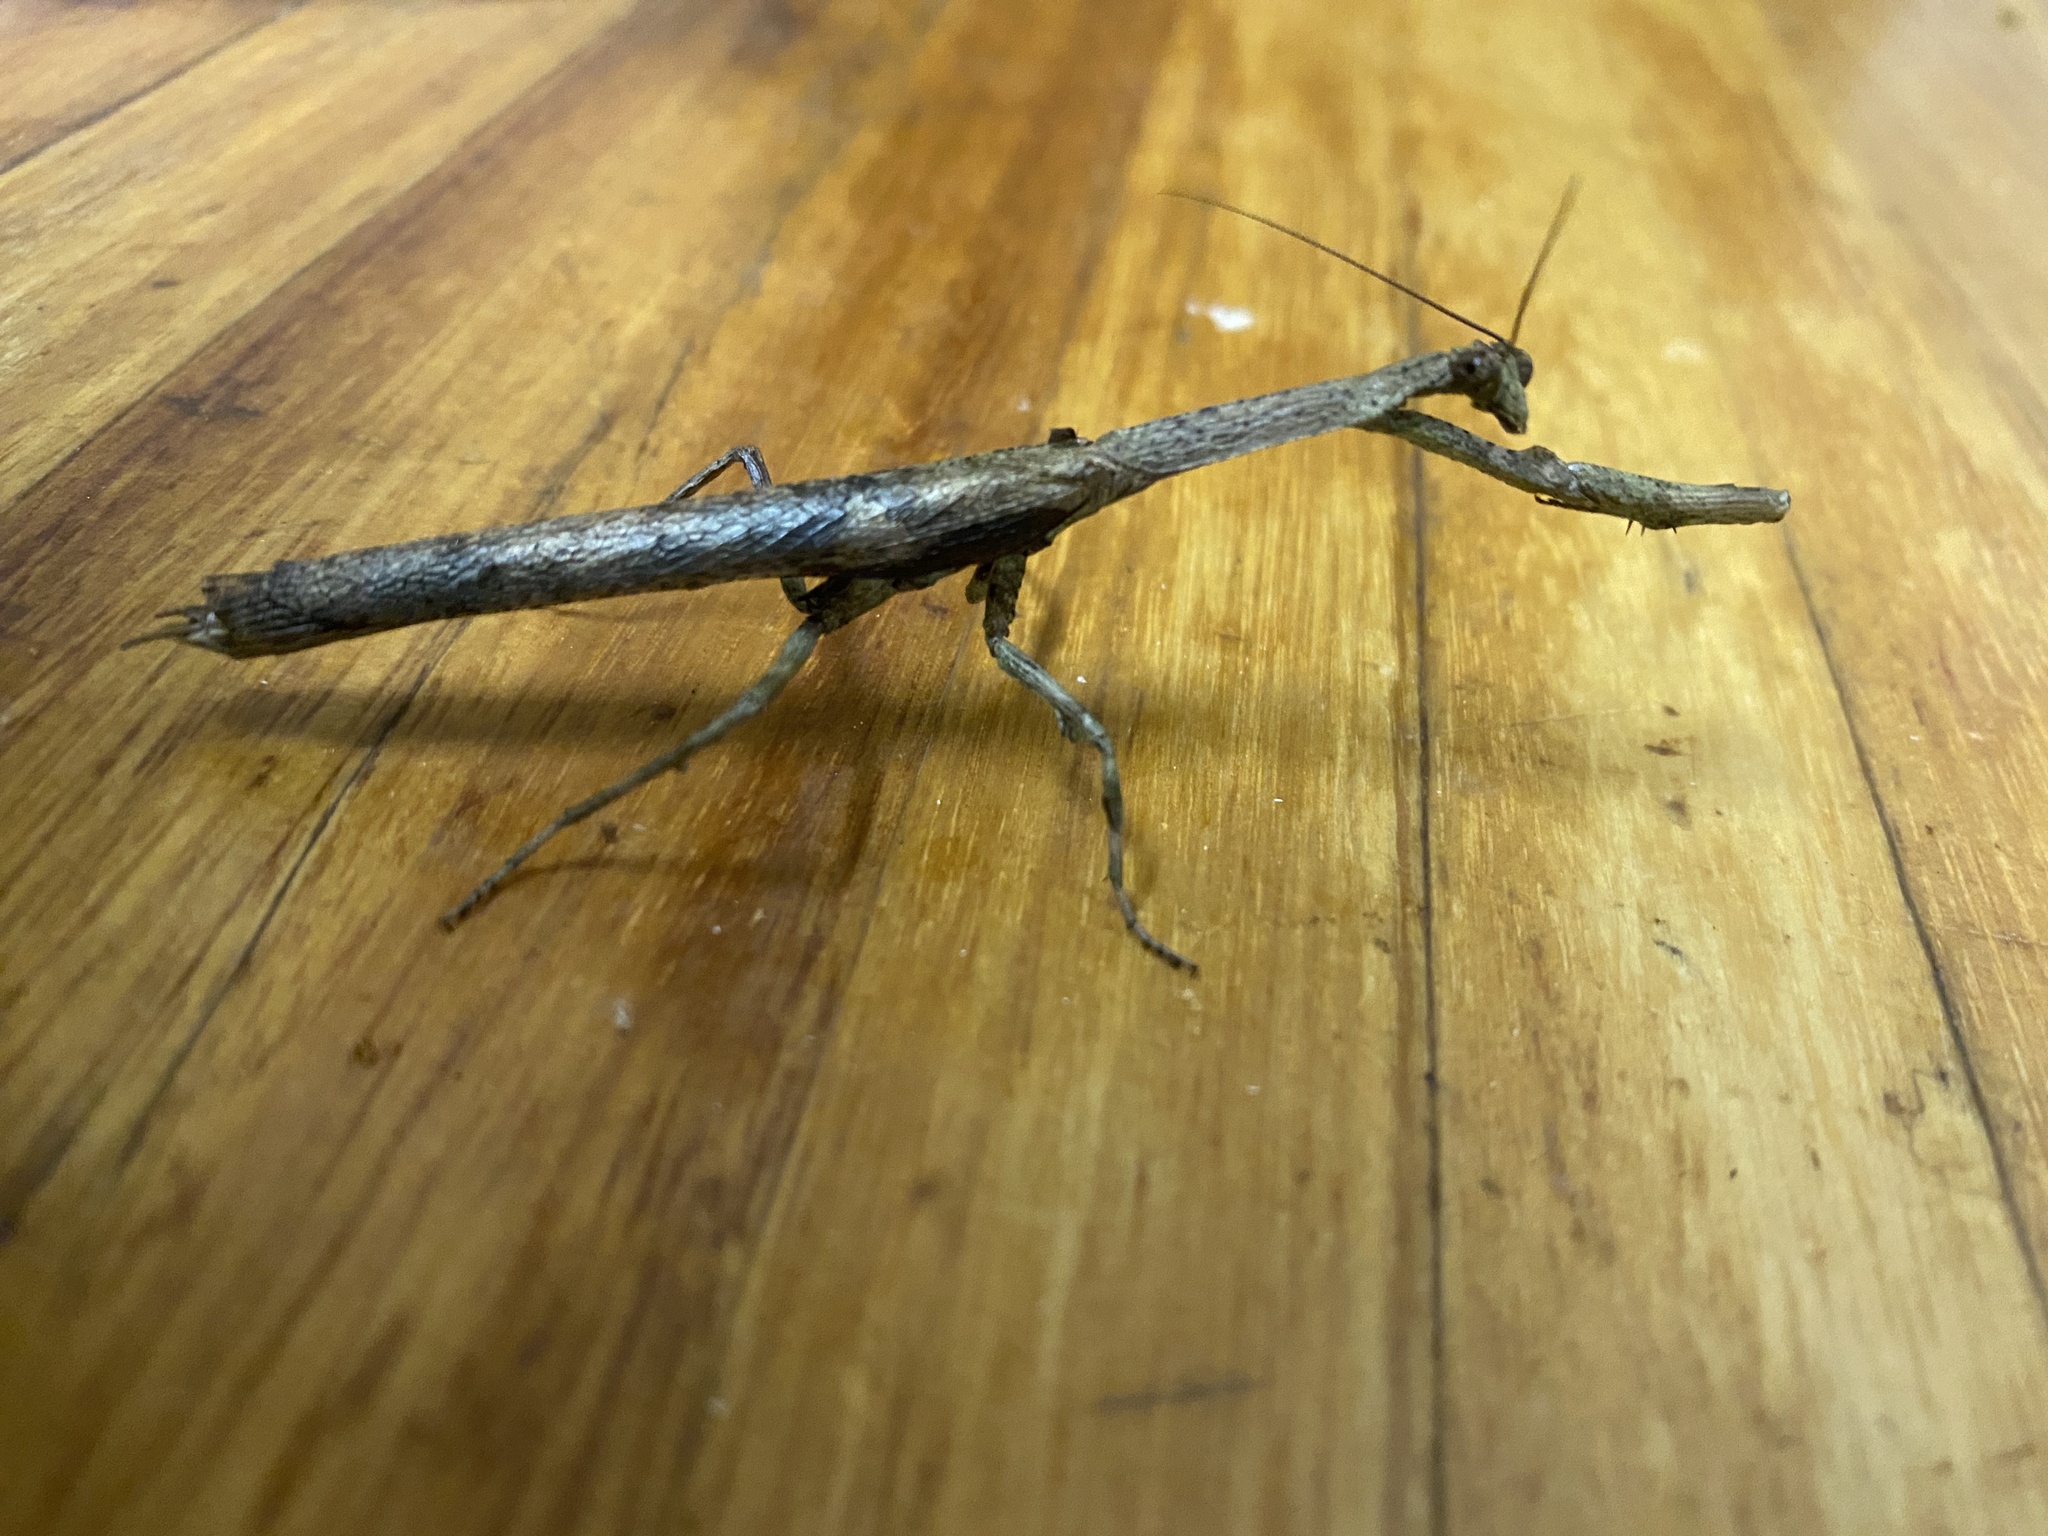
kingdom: Animalia
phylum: Arthropoda
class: Insecta
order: Mantodea
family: Deroplatyidae
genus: Popa
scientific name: Popa spurca
